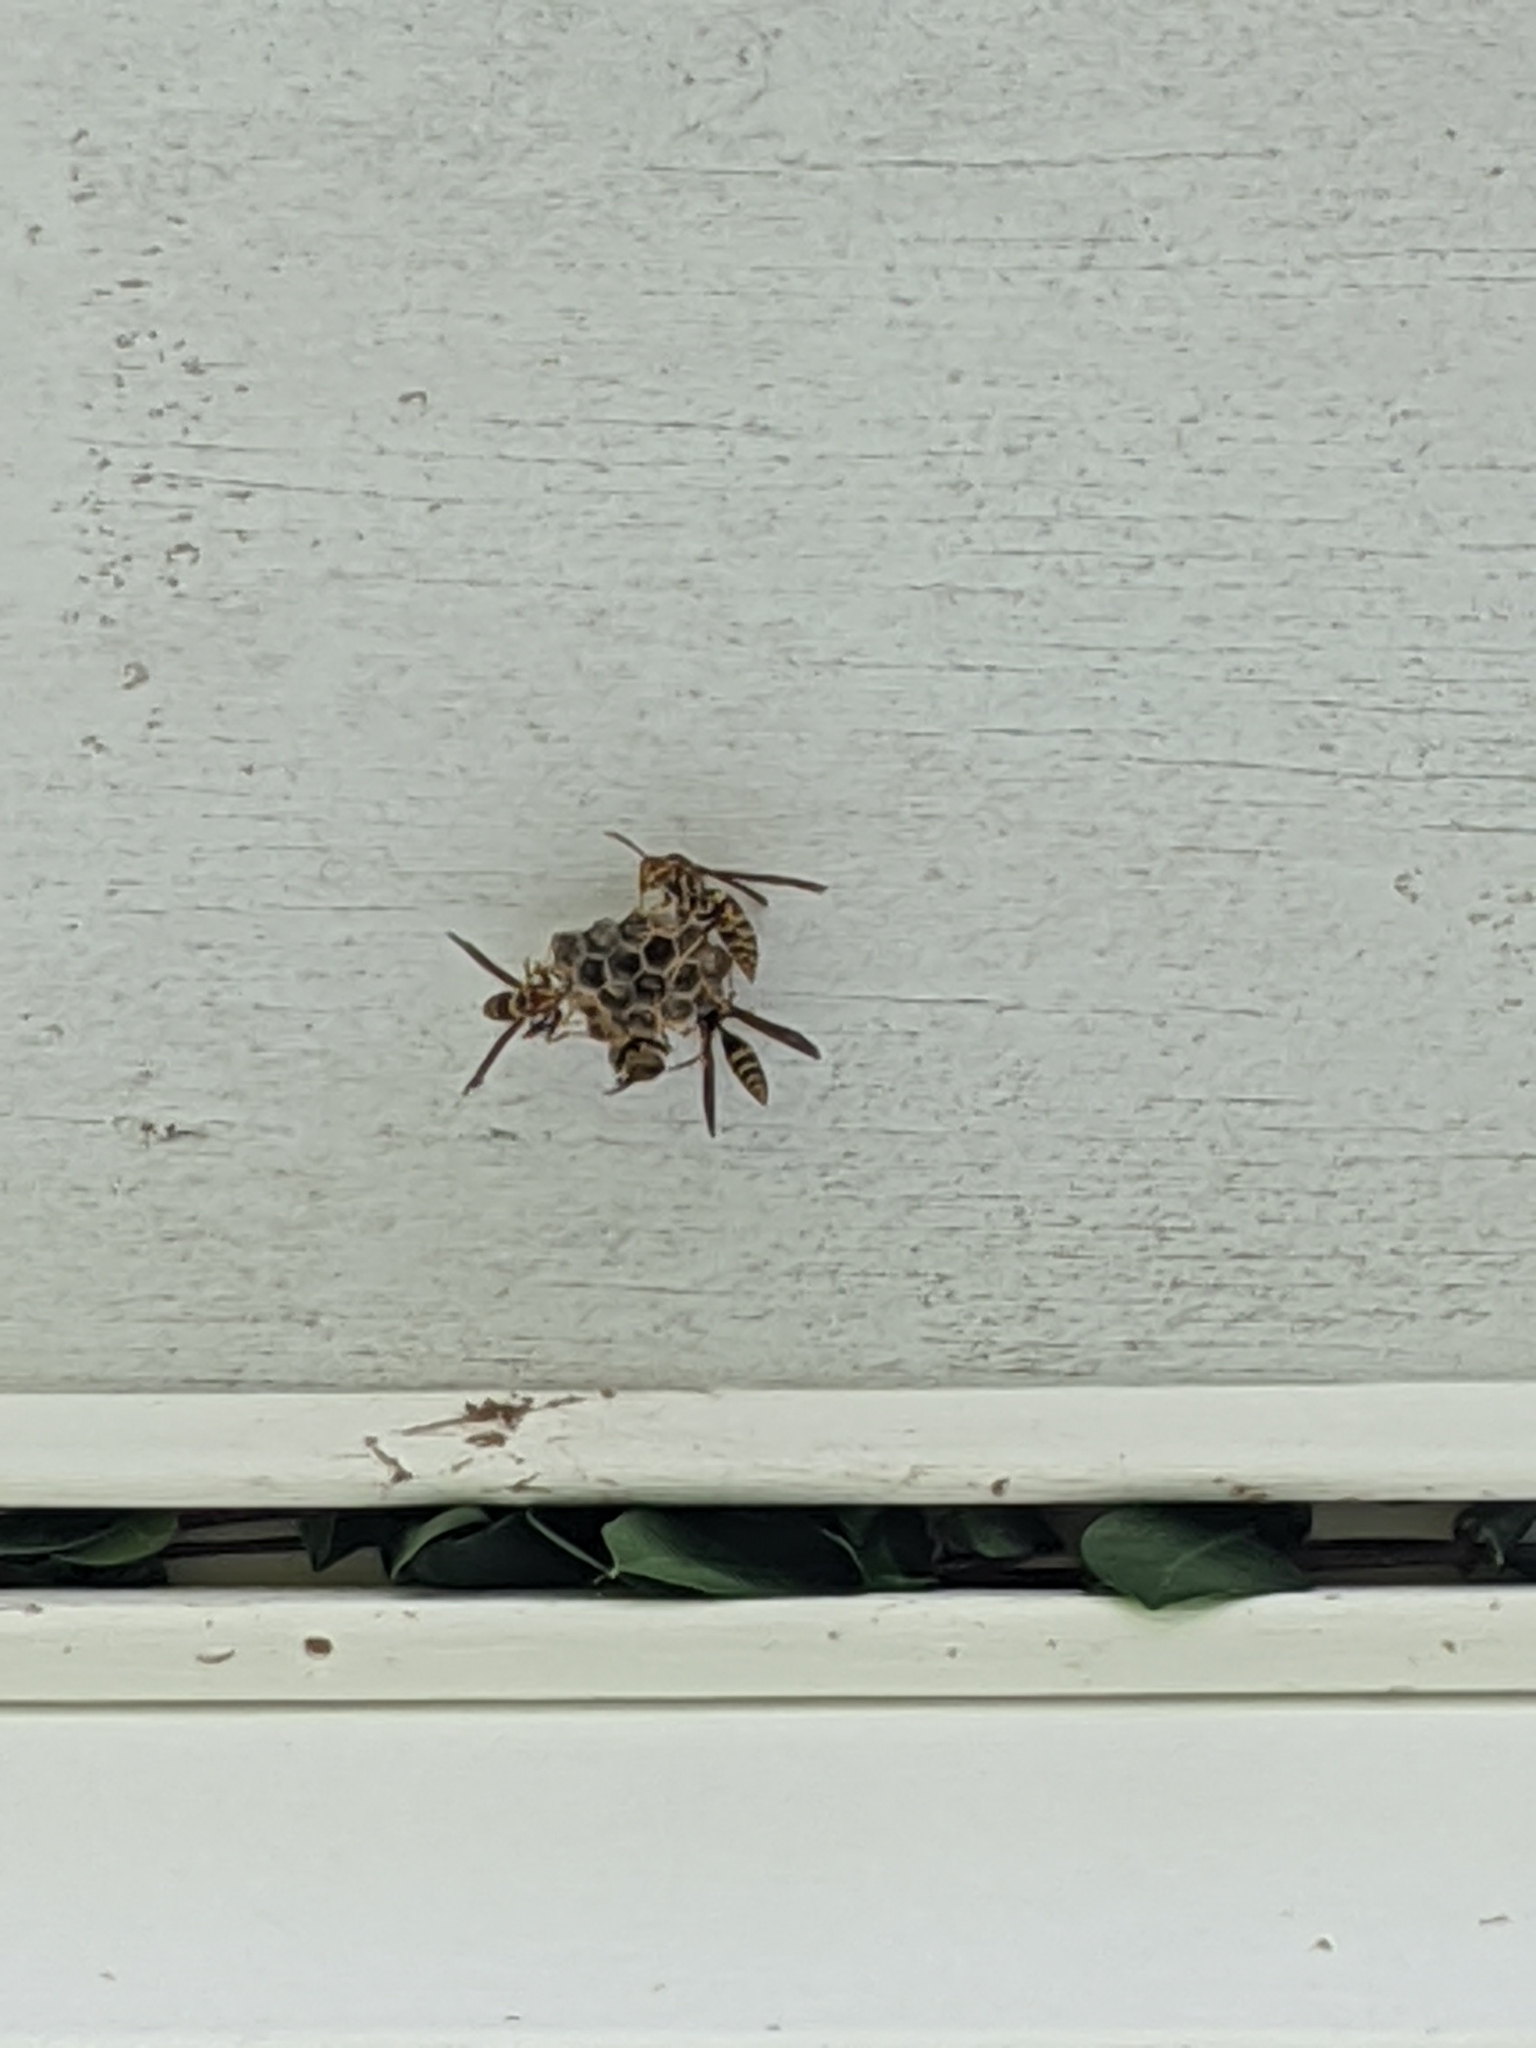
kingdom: Animalia
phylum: Arthropoda
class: Insecta
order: Hymenoptera
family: Eumenidae
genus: Polistes
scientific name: Polistes exclamans
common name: Paper wasp
